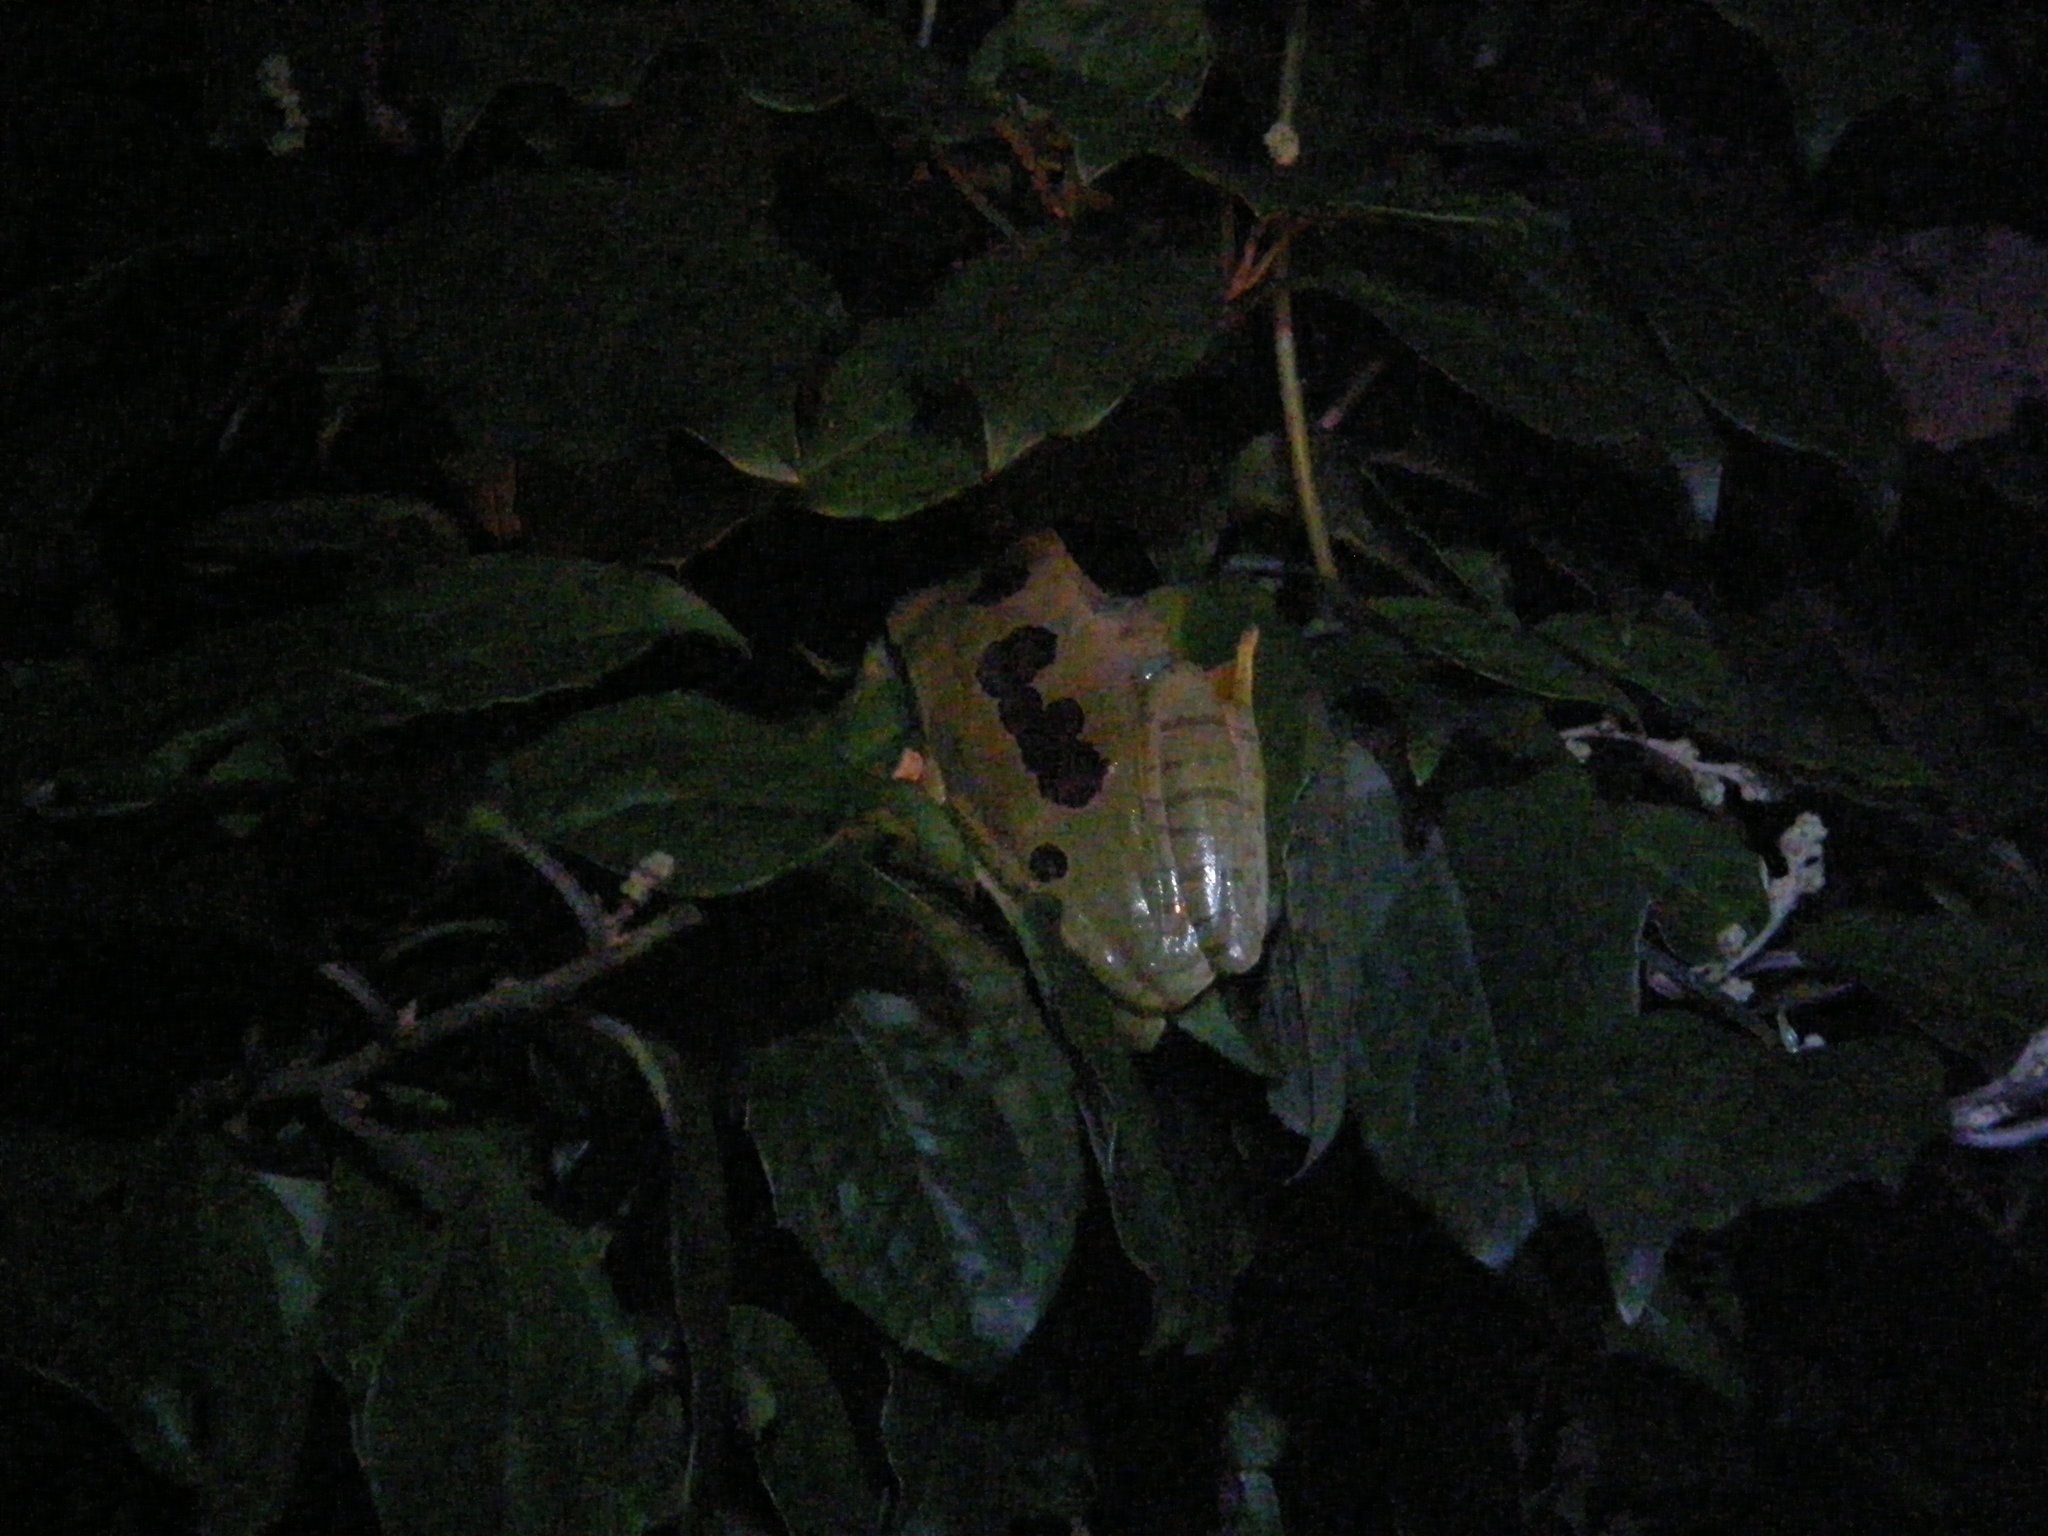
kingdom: Animalia
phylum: Chordata
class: Amphibia
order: Anura
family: Mantellidae
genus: Boophis
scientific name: Boophis albilabris
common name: White-lipped bright-eyed frog
